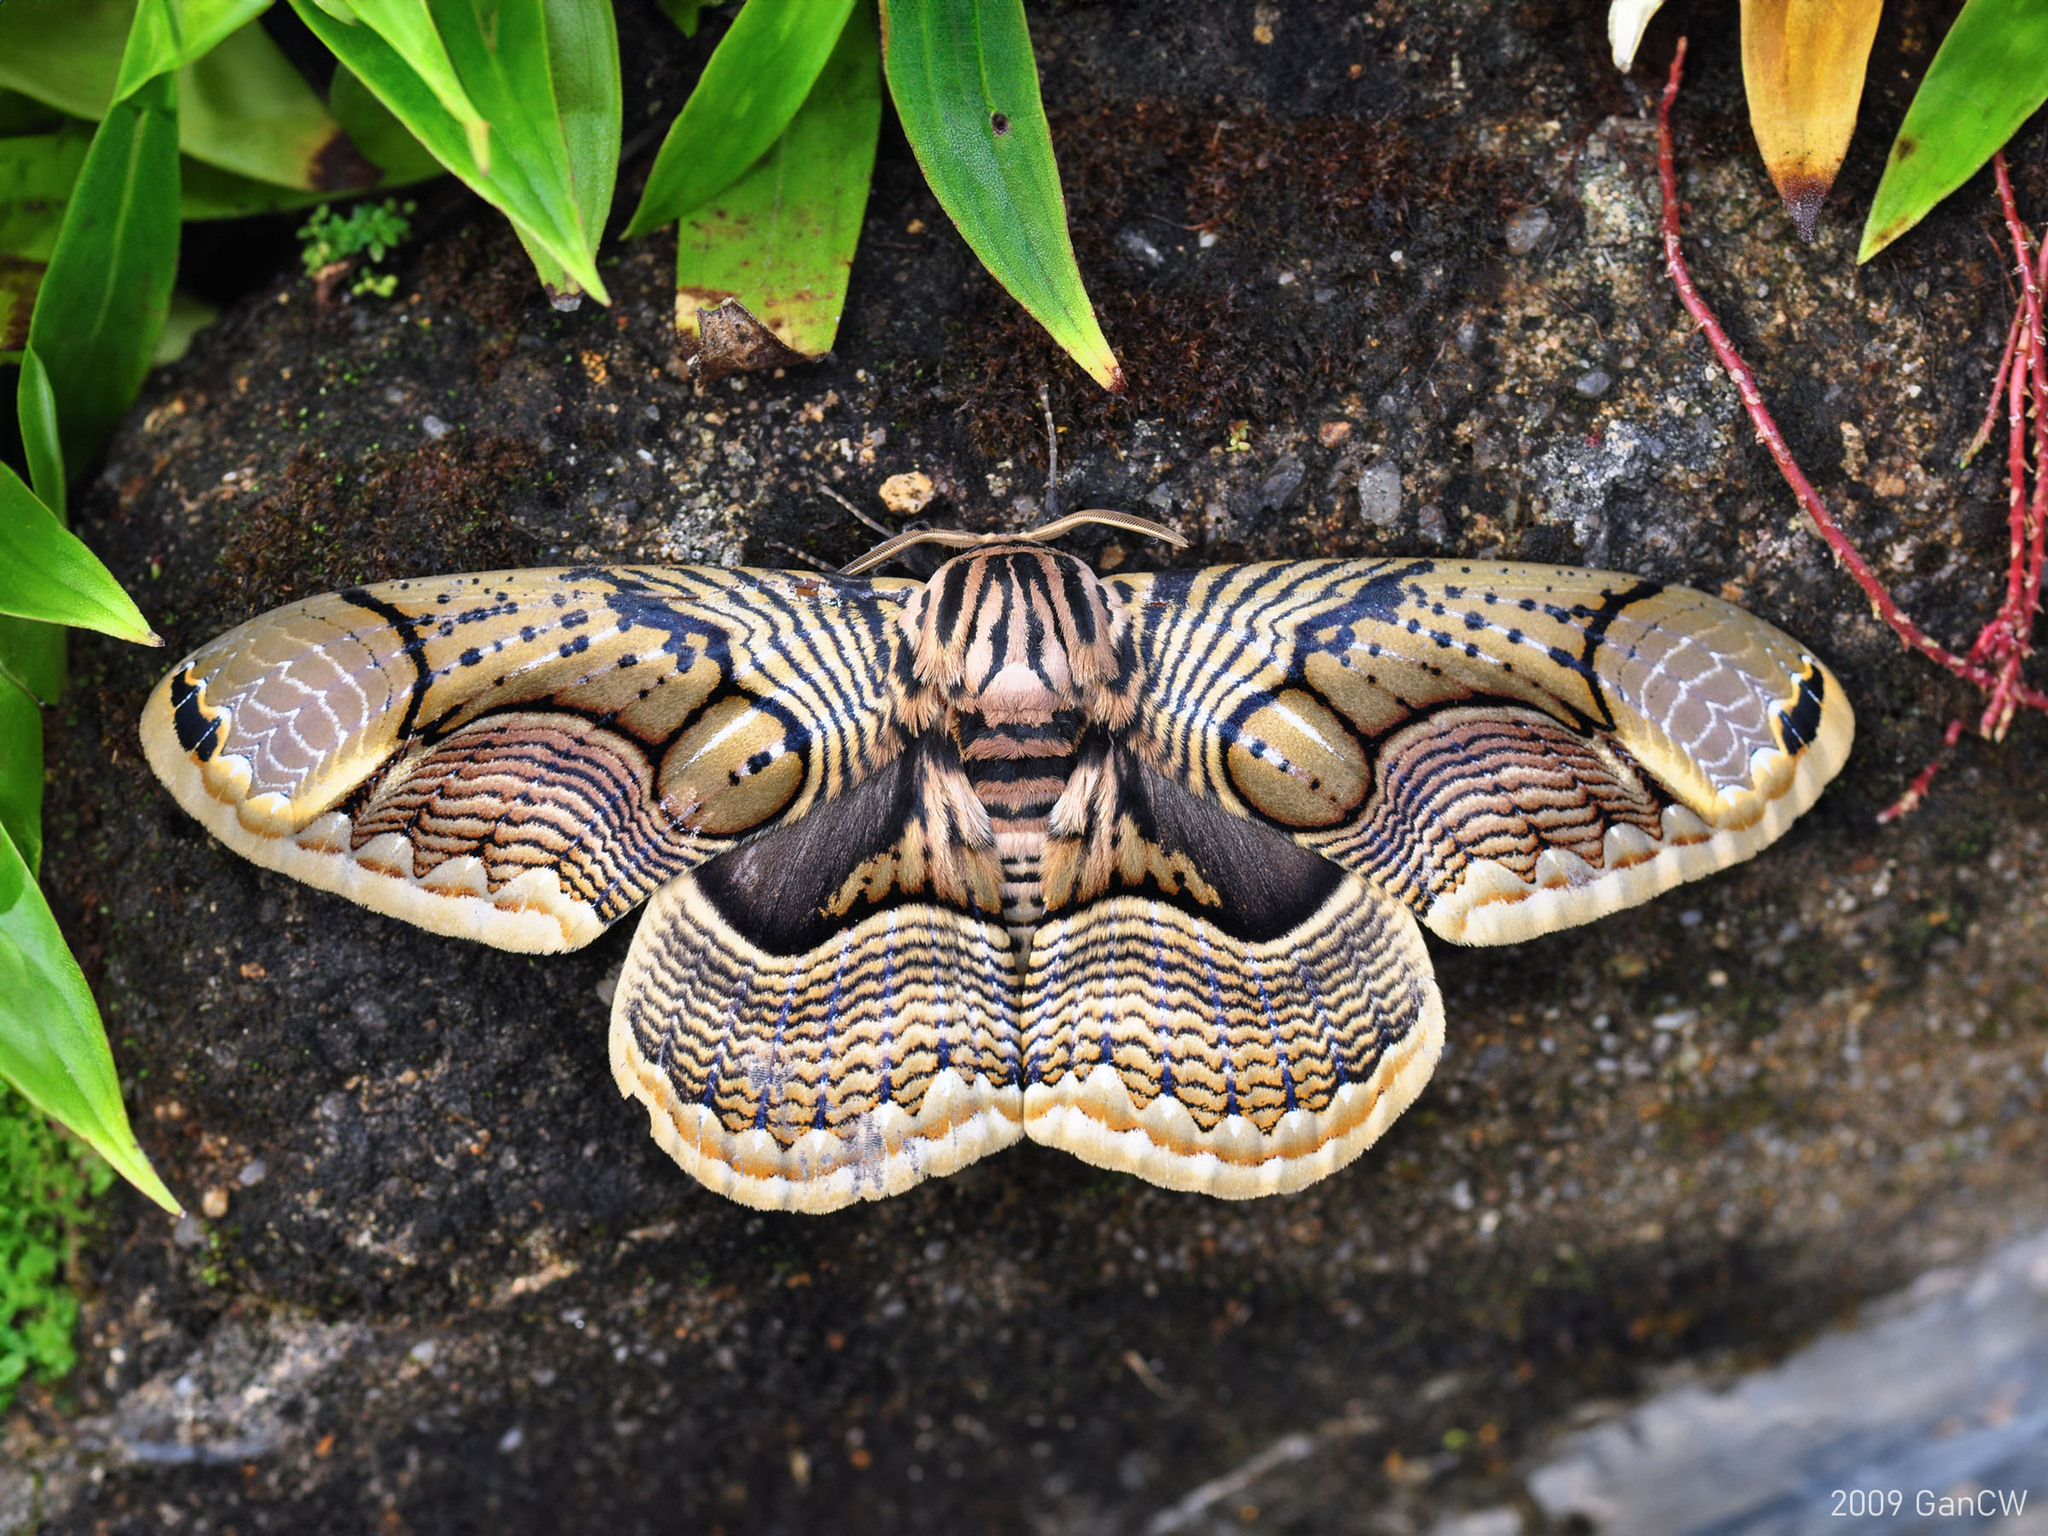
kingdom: Animalia
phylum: Arthropoda
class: Insecta
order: Lepidoptera
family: Brahmaeidae
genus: Brahmaea
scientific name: Brahmaea hearseyi
